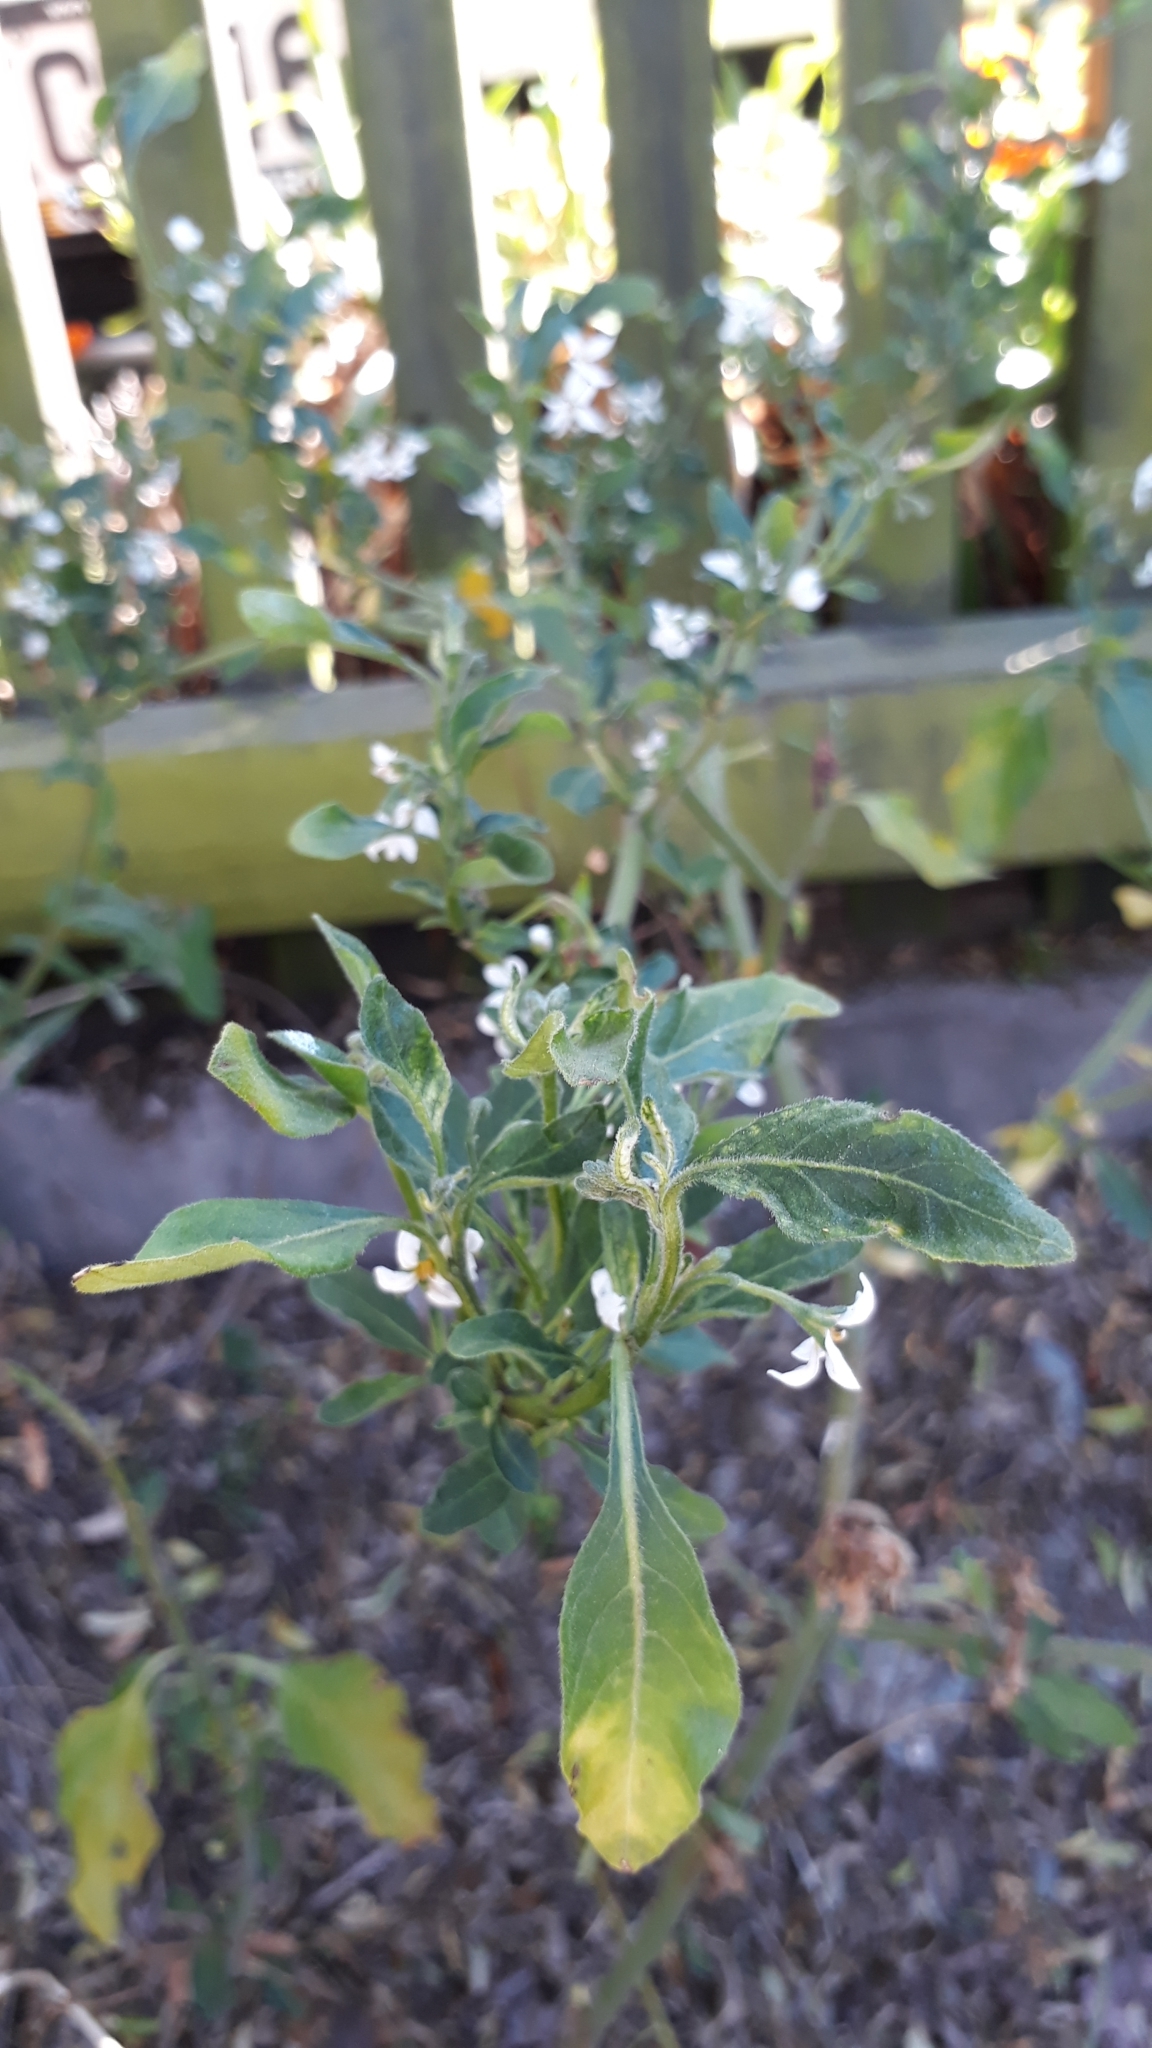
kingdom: Plantae
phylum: Tracheophyta
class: Magnoliopsida
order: Solanales
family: Solanaceae
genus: Solanum
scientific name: Solanum chenopodioides
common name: Tall nightshade
